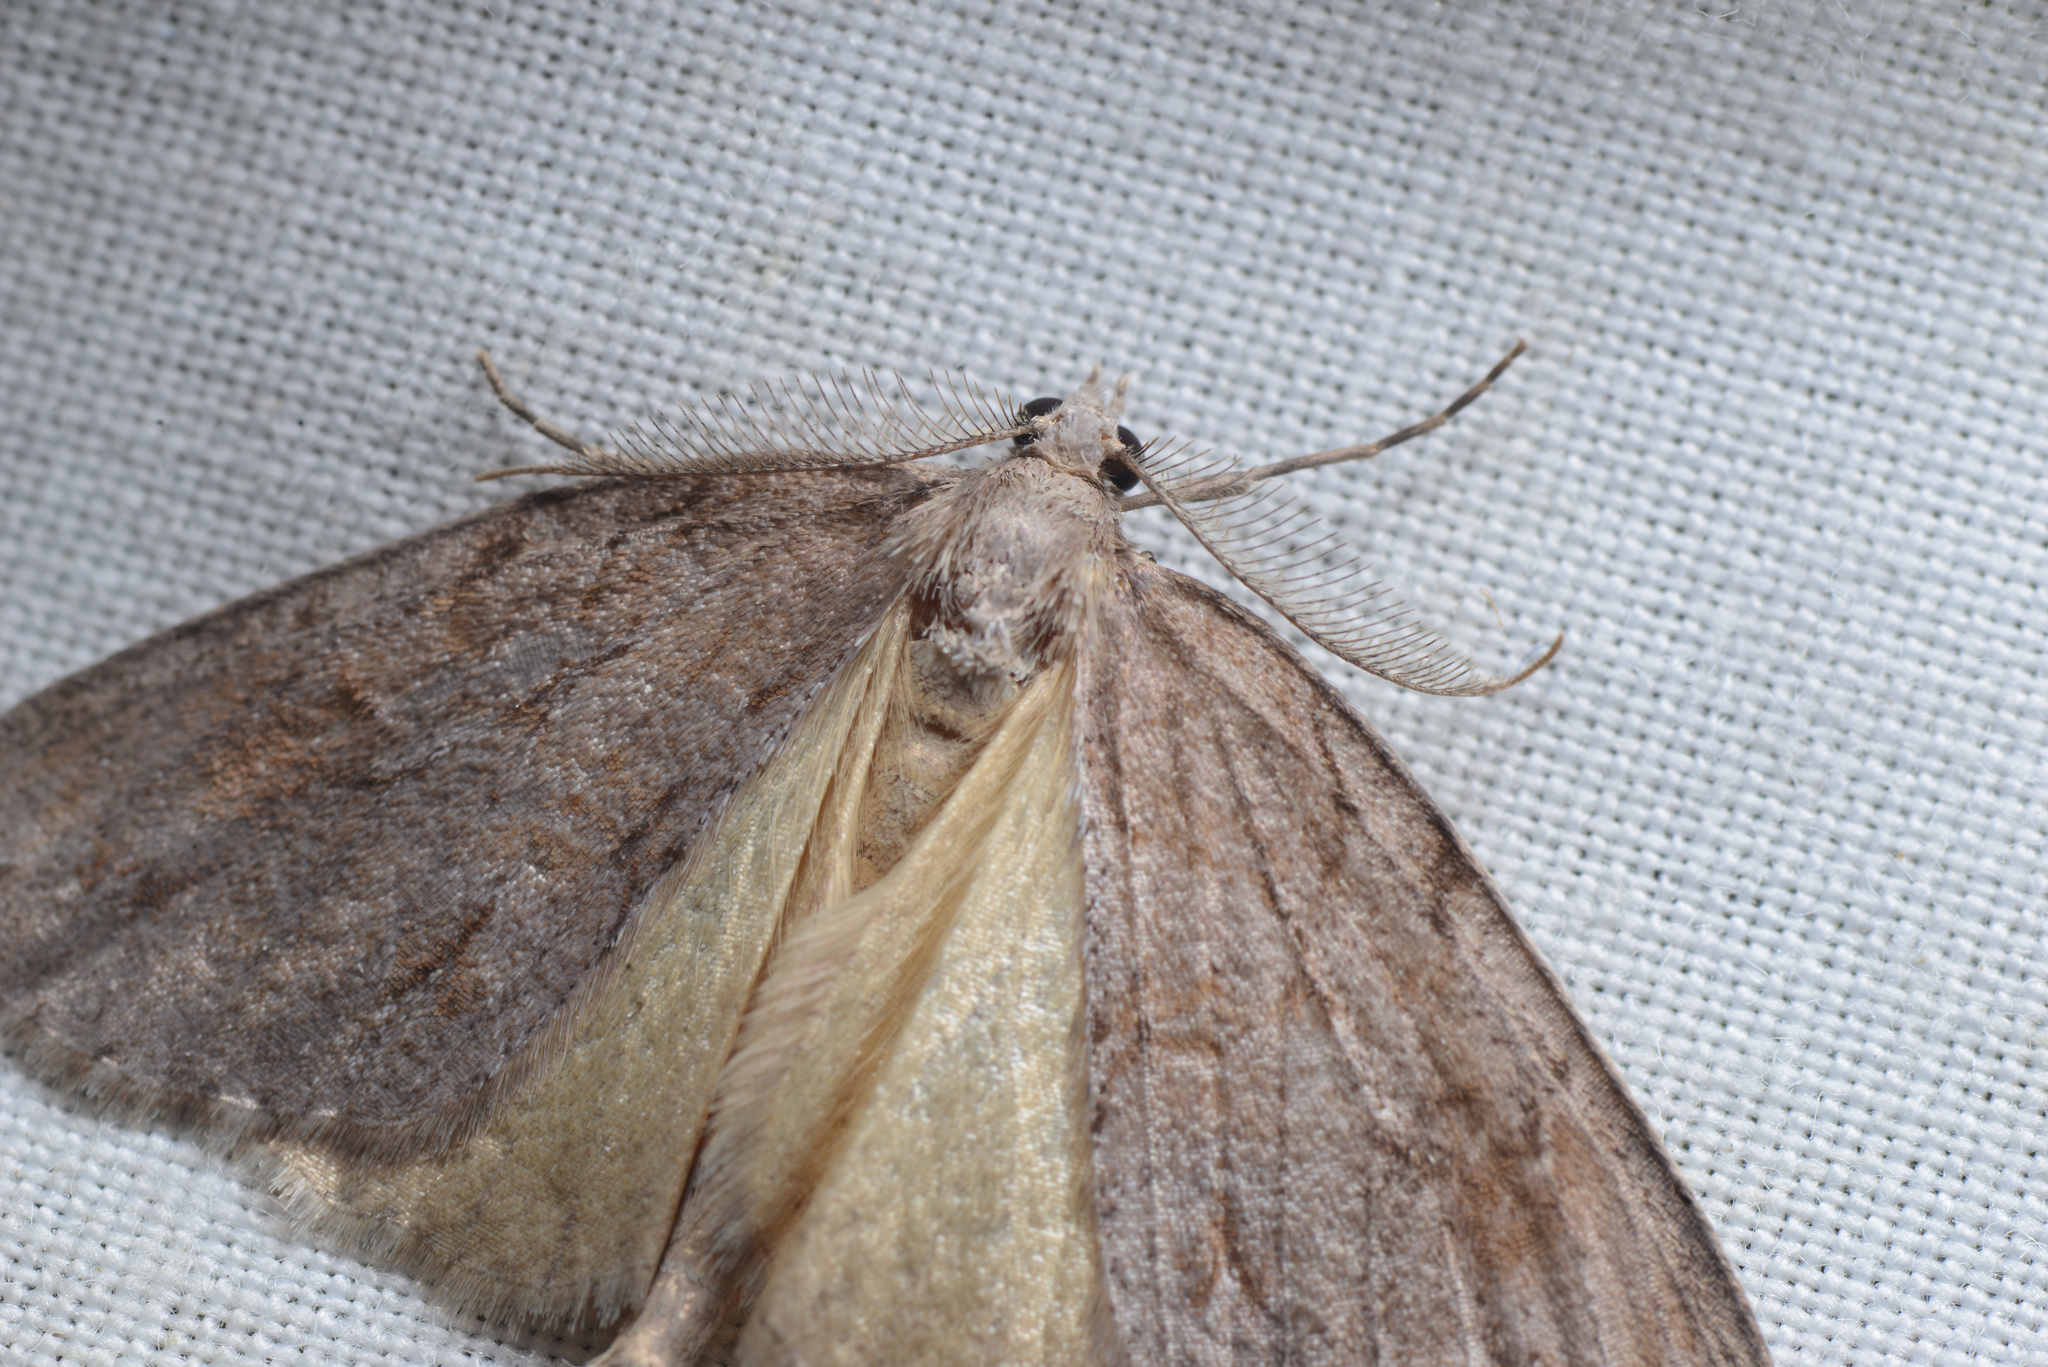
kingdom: Animalia
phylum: Arthropoda
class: Insecta
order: Lepidoptera
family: Geometridae
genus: Pseudocoremia
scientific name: Pseudocoremia lupinata
